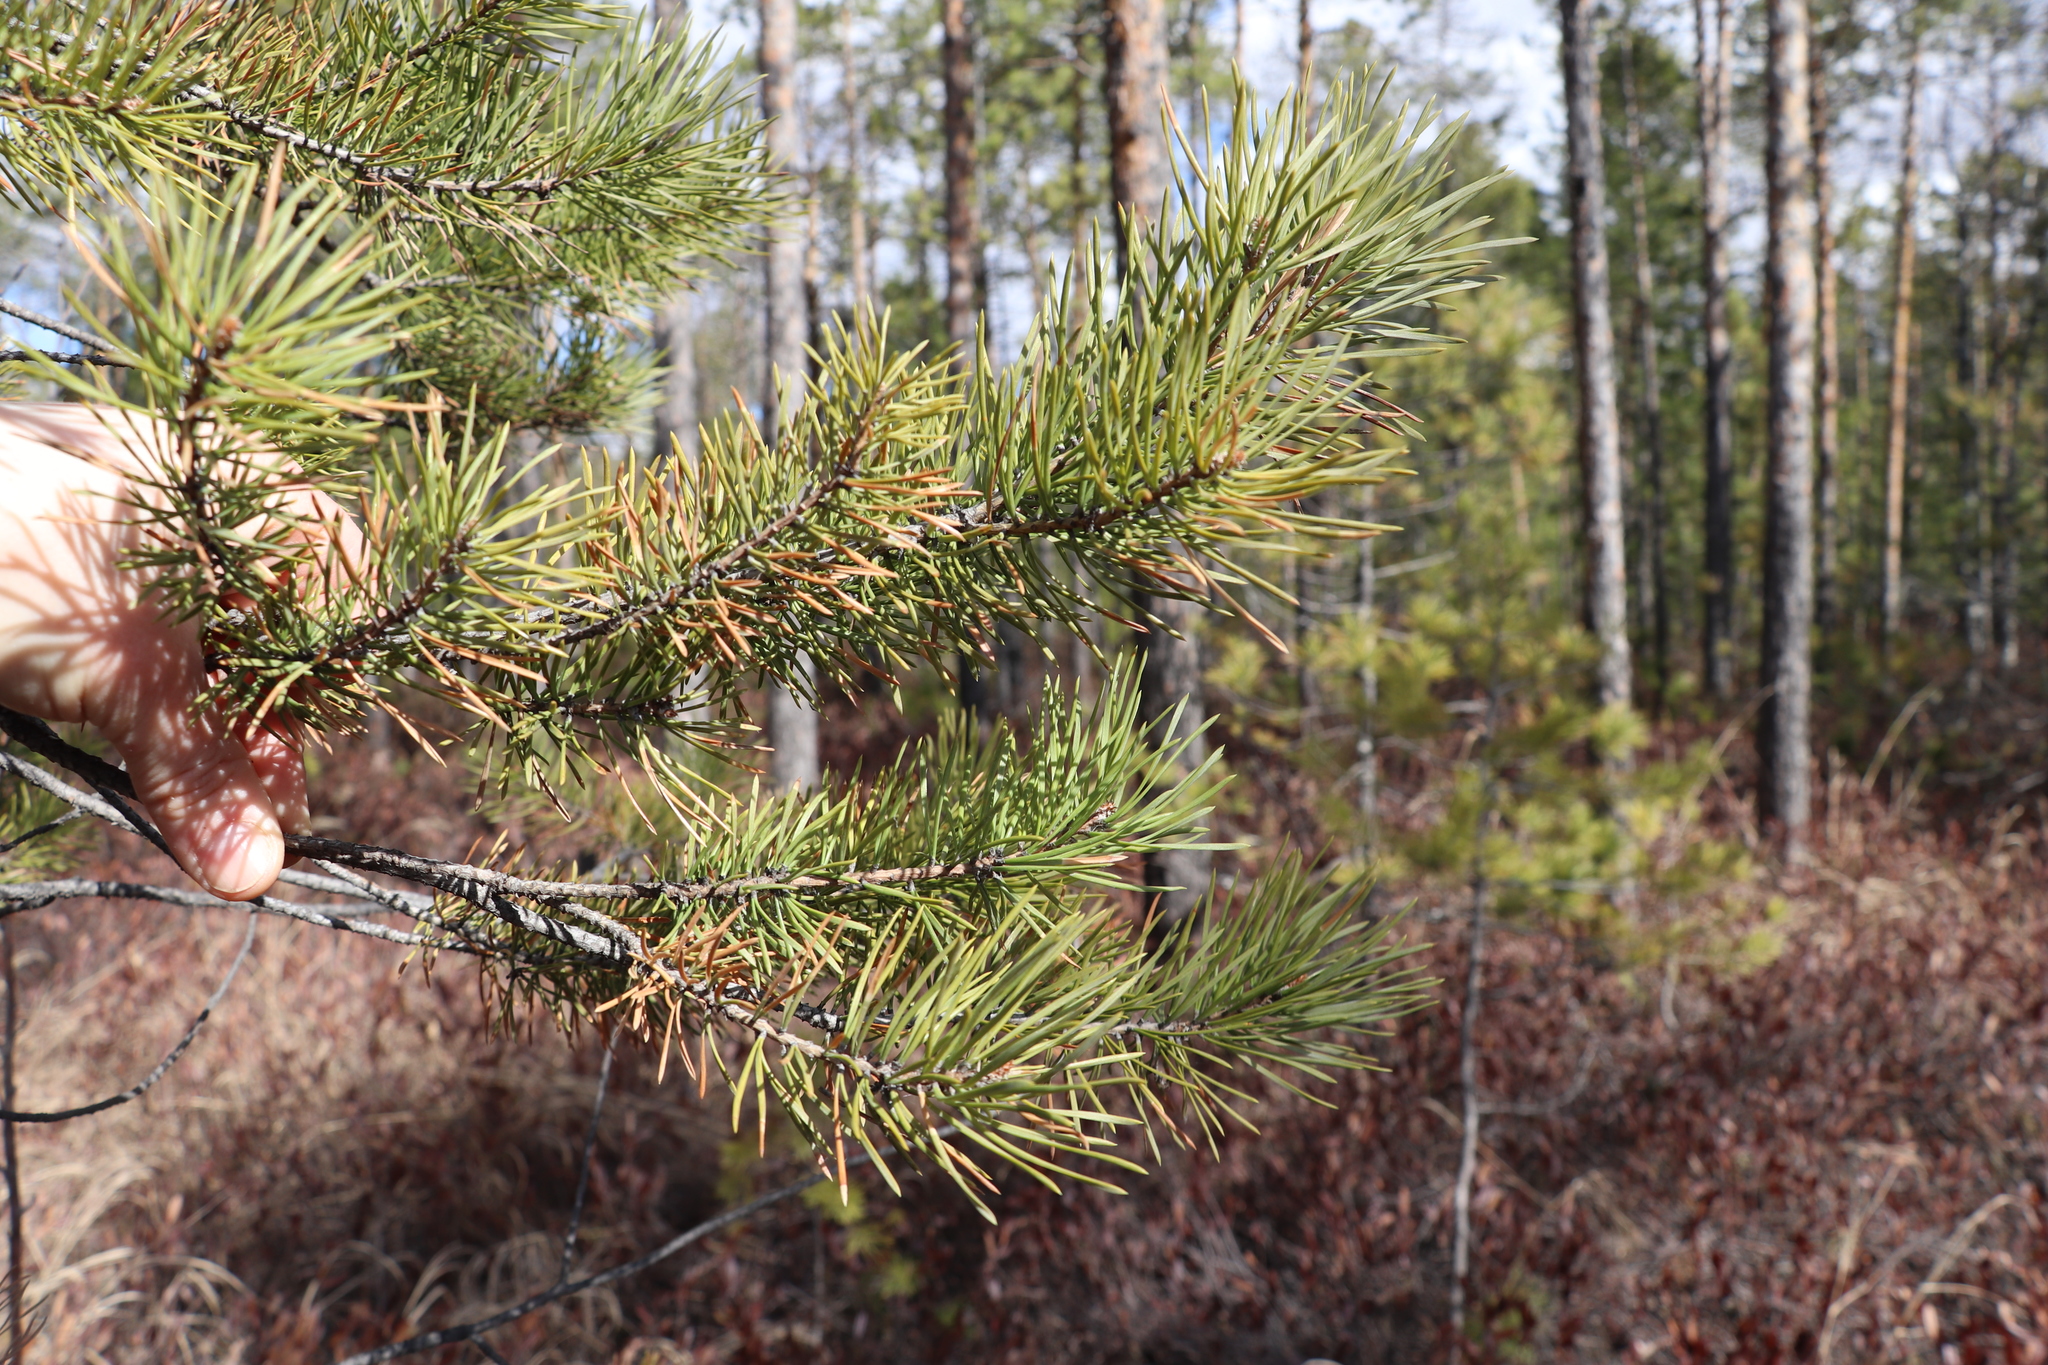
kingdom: Plantae
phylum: Tracheophyta
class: Pinopsida
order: Pinales
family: Pinaceae
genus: Pinus
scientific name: Pinus sylvestris
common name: Scots pine
